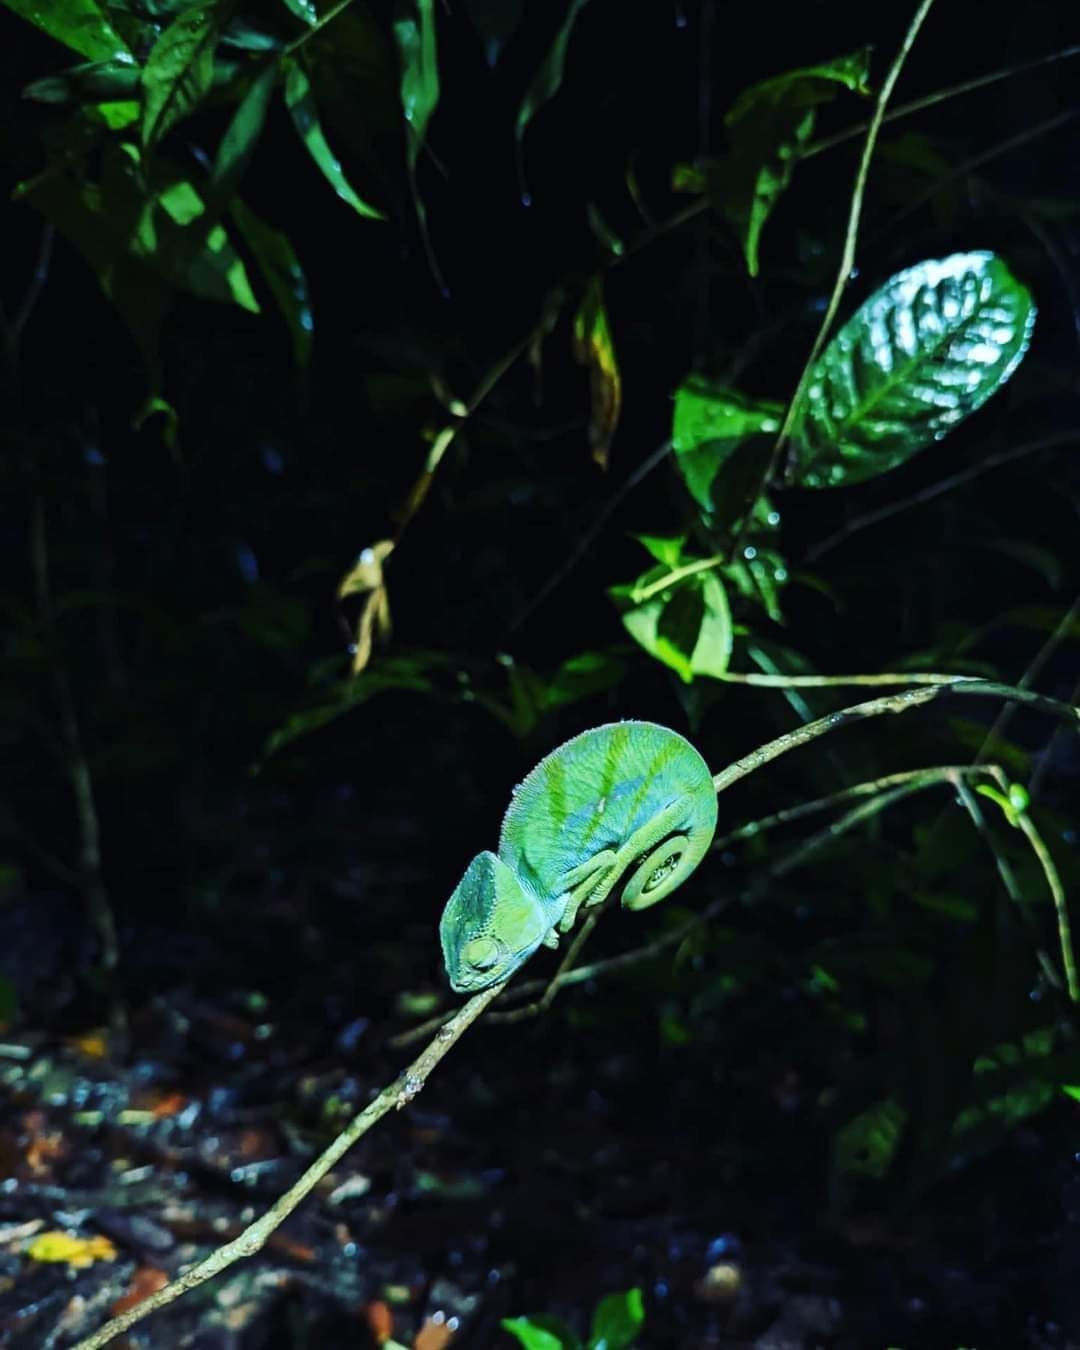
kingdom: Animalia
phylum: Chordata
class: Squamata
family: Chamaeleonidae
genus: Calumma
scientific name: Calumma parsonii
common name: Parson's chameleon
